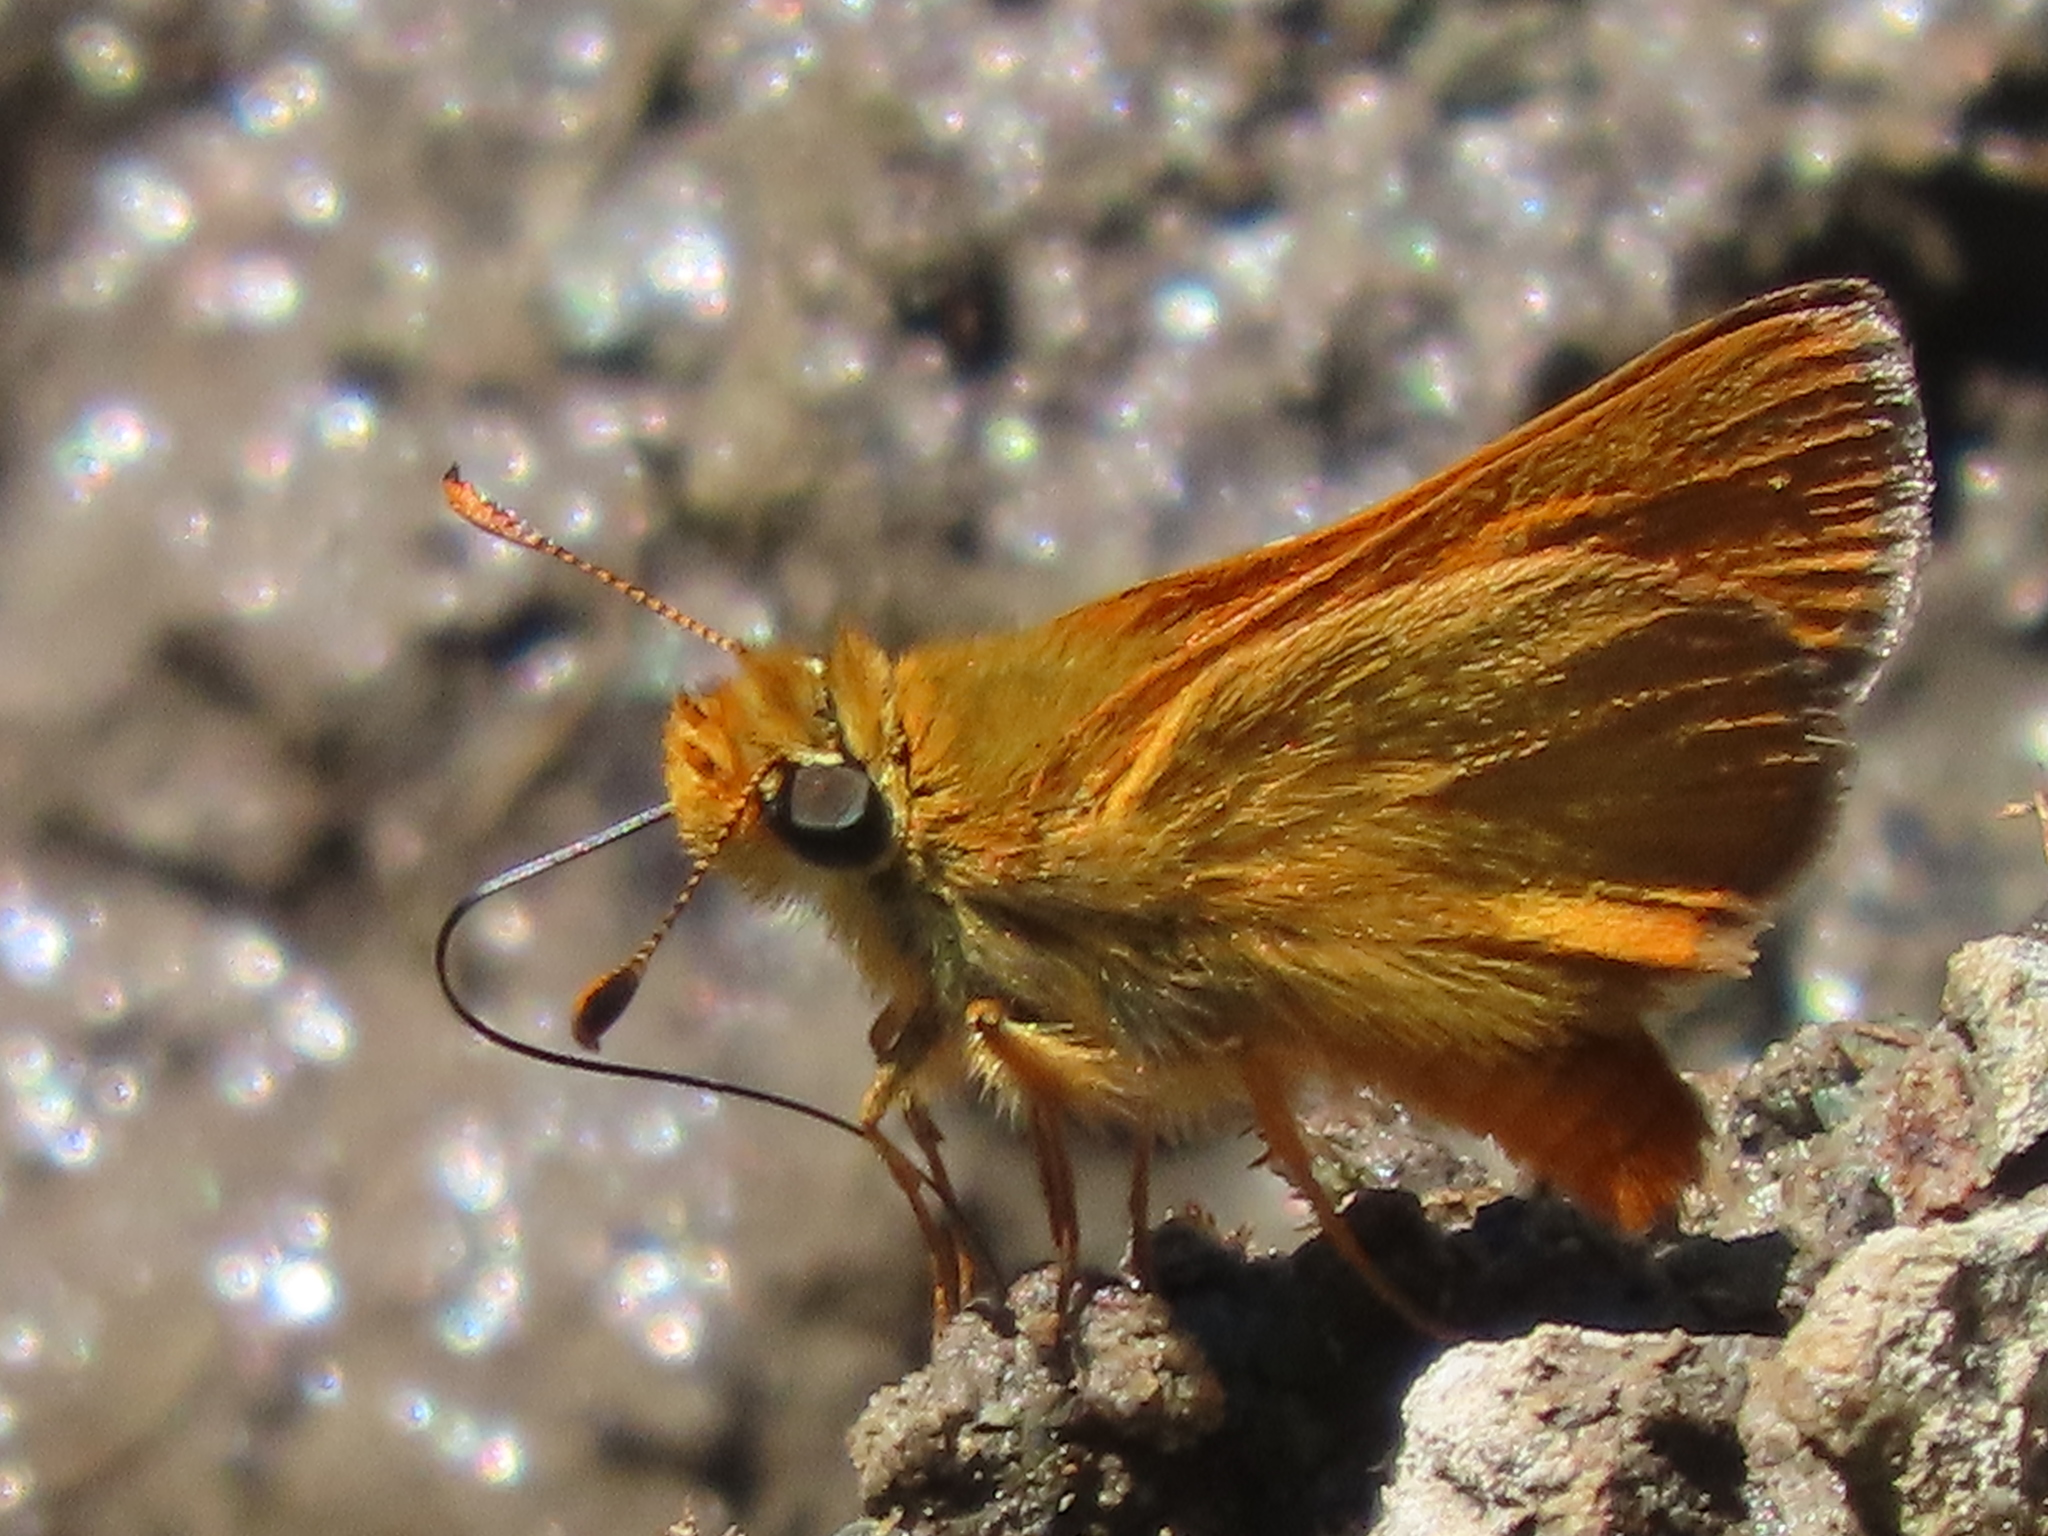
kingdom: Animalia
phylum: Arthropoda
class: Insecta
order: Lepidoptera
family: Hesperiidae
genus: Ochlodes
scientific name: Ochlodes agricola
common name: Rural skipper
